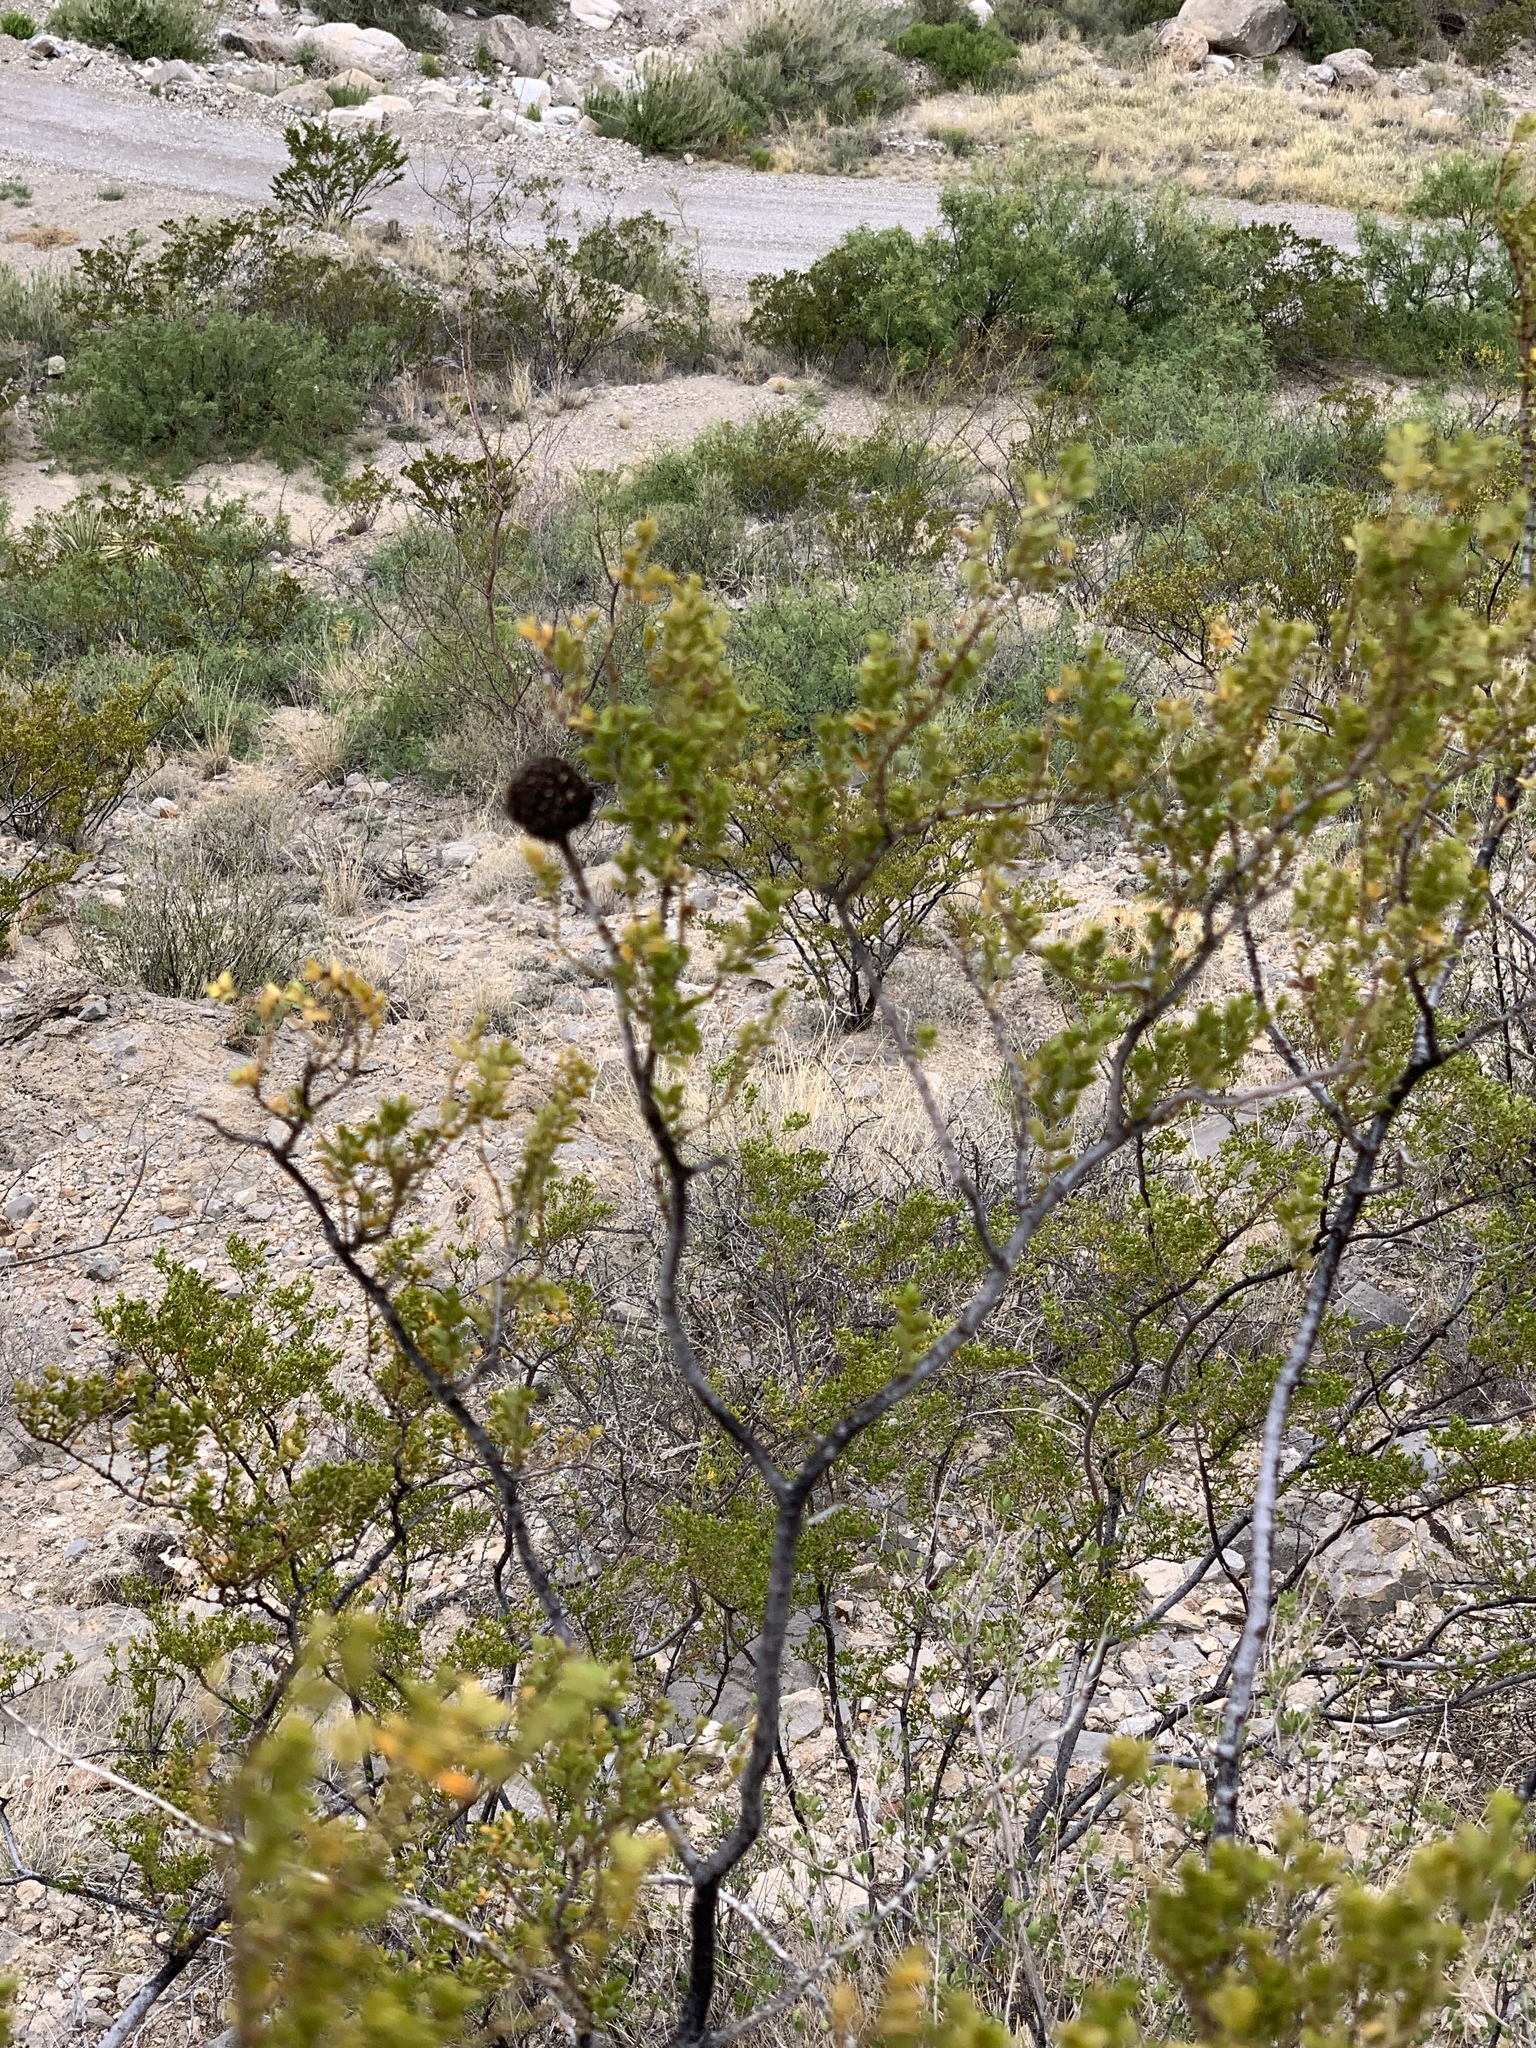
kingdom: Plantae
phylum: Tracheophyta
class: Magnoliopsida
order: Zygophyllales
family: Zygophyllaceae
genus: Larrea
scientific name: Larrea tridentata
